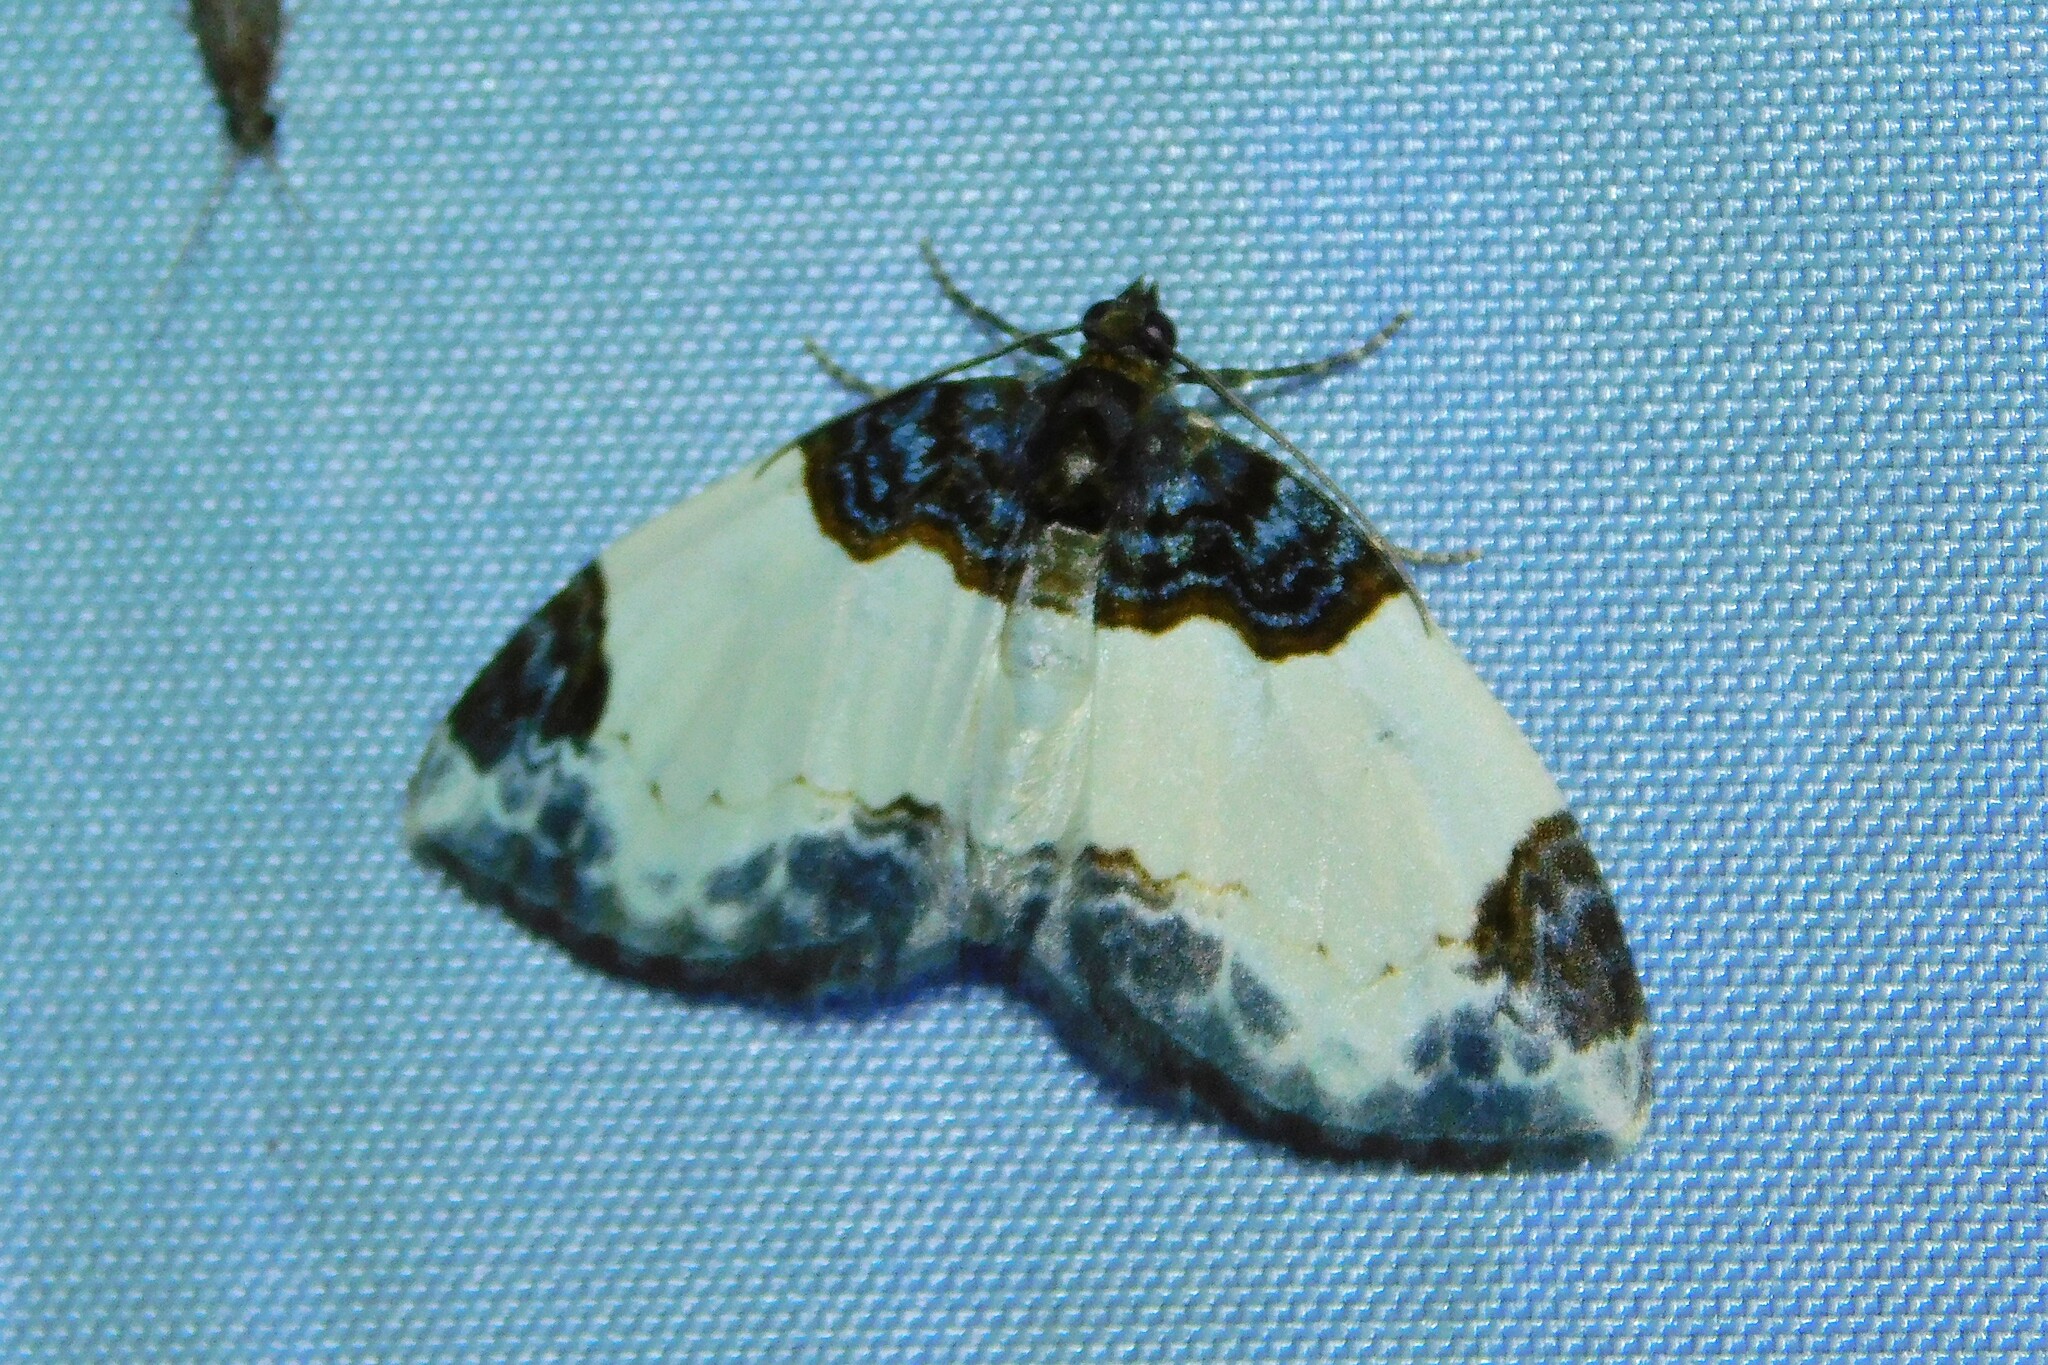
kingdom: Animalia
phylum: Arthropoda
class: Insecta
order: Lepidoptera
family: Geometridae
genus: Mesoleuca
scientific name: Mesoleuca albicillata
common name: Beautiful carpet
